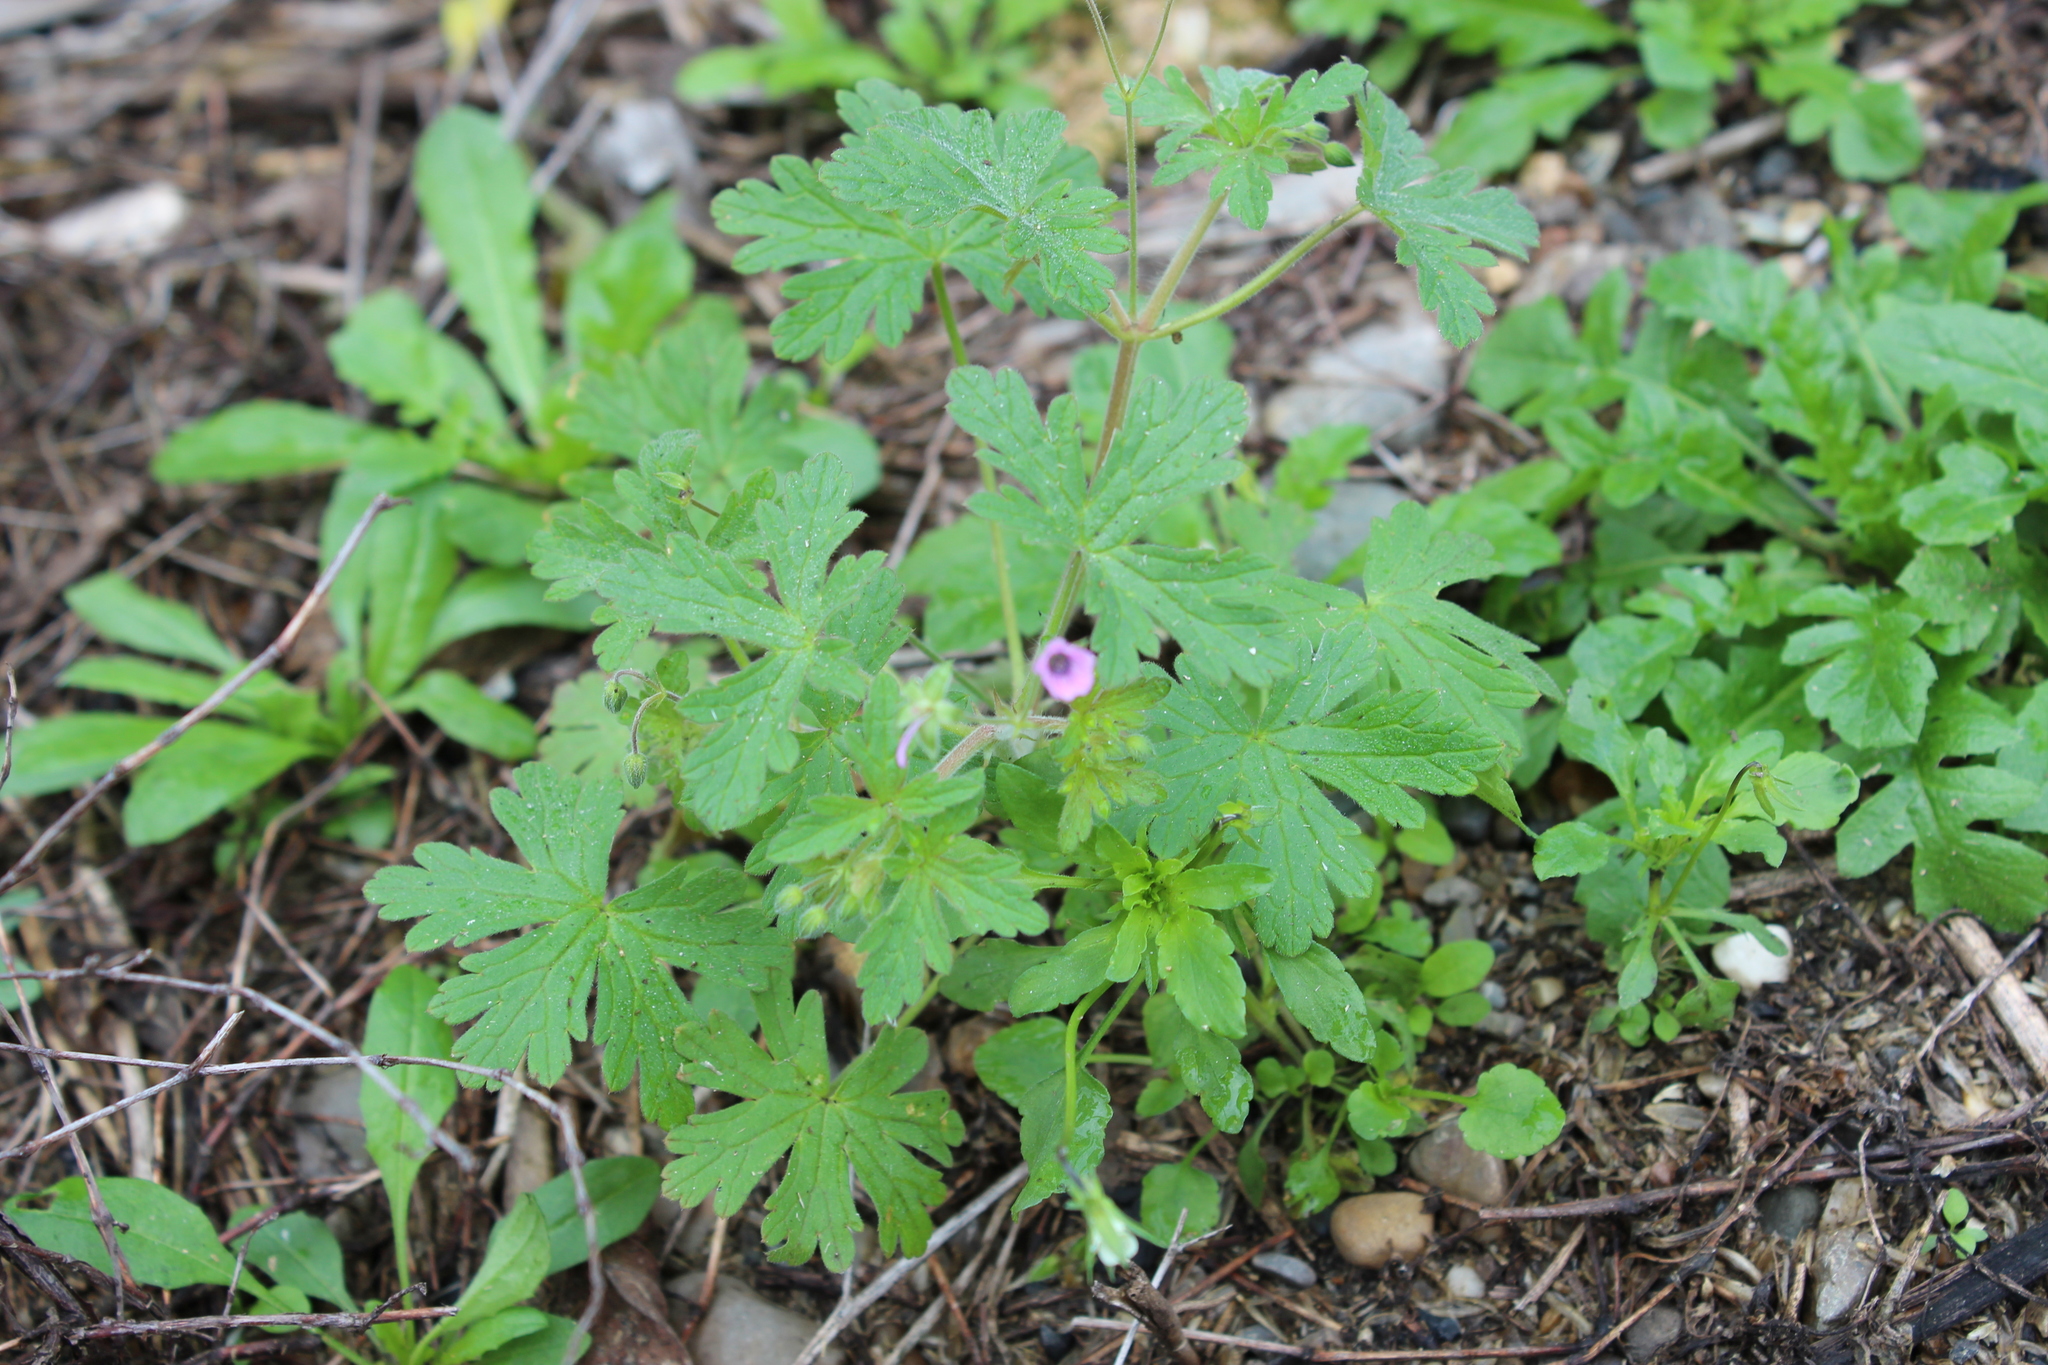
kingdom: Plantae
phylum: Tracheophyta
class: Magnoliopsida
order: Geraniales
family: Geraniaceae
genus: Geranium
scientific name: Geranium divaricatum
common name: Spreading crane's-bill
